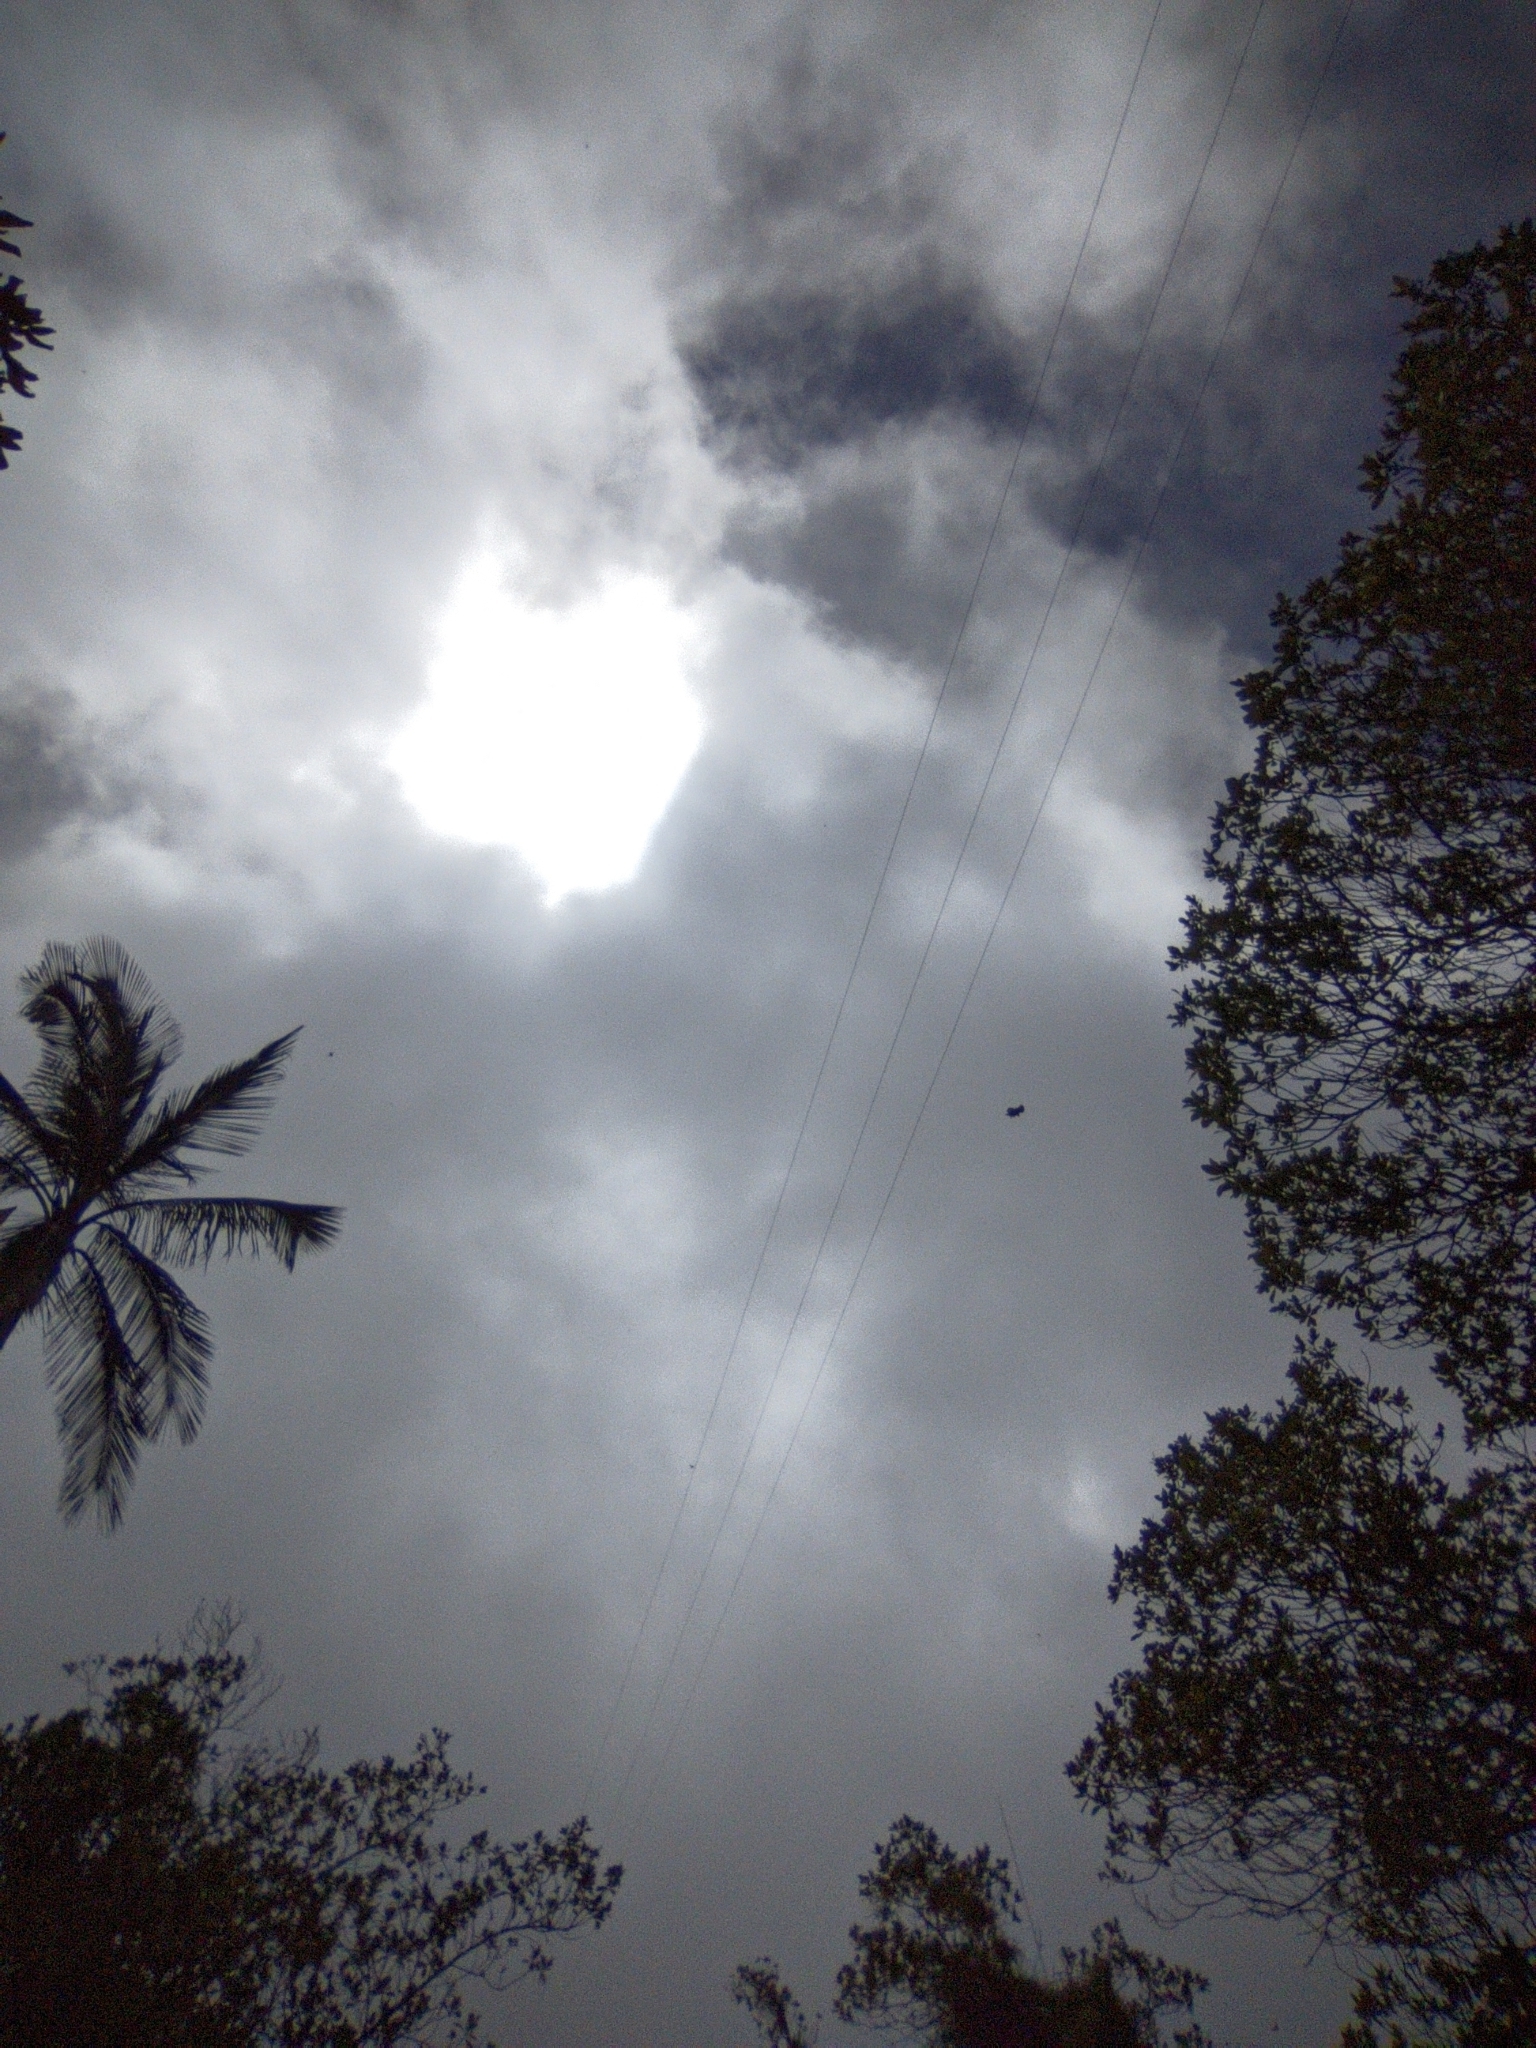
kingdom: Animalia
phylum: Chordata
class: Aves
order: Accipitriformes
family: Accipitridae
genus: Spizaetus
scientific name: Spizaetus isidori
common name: Black-and-chestnut eagle
